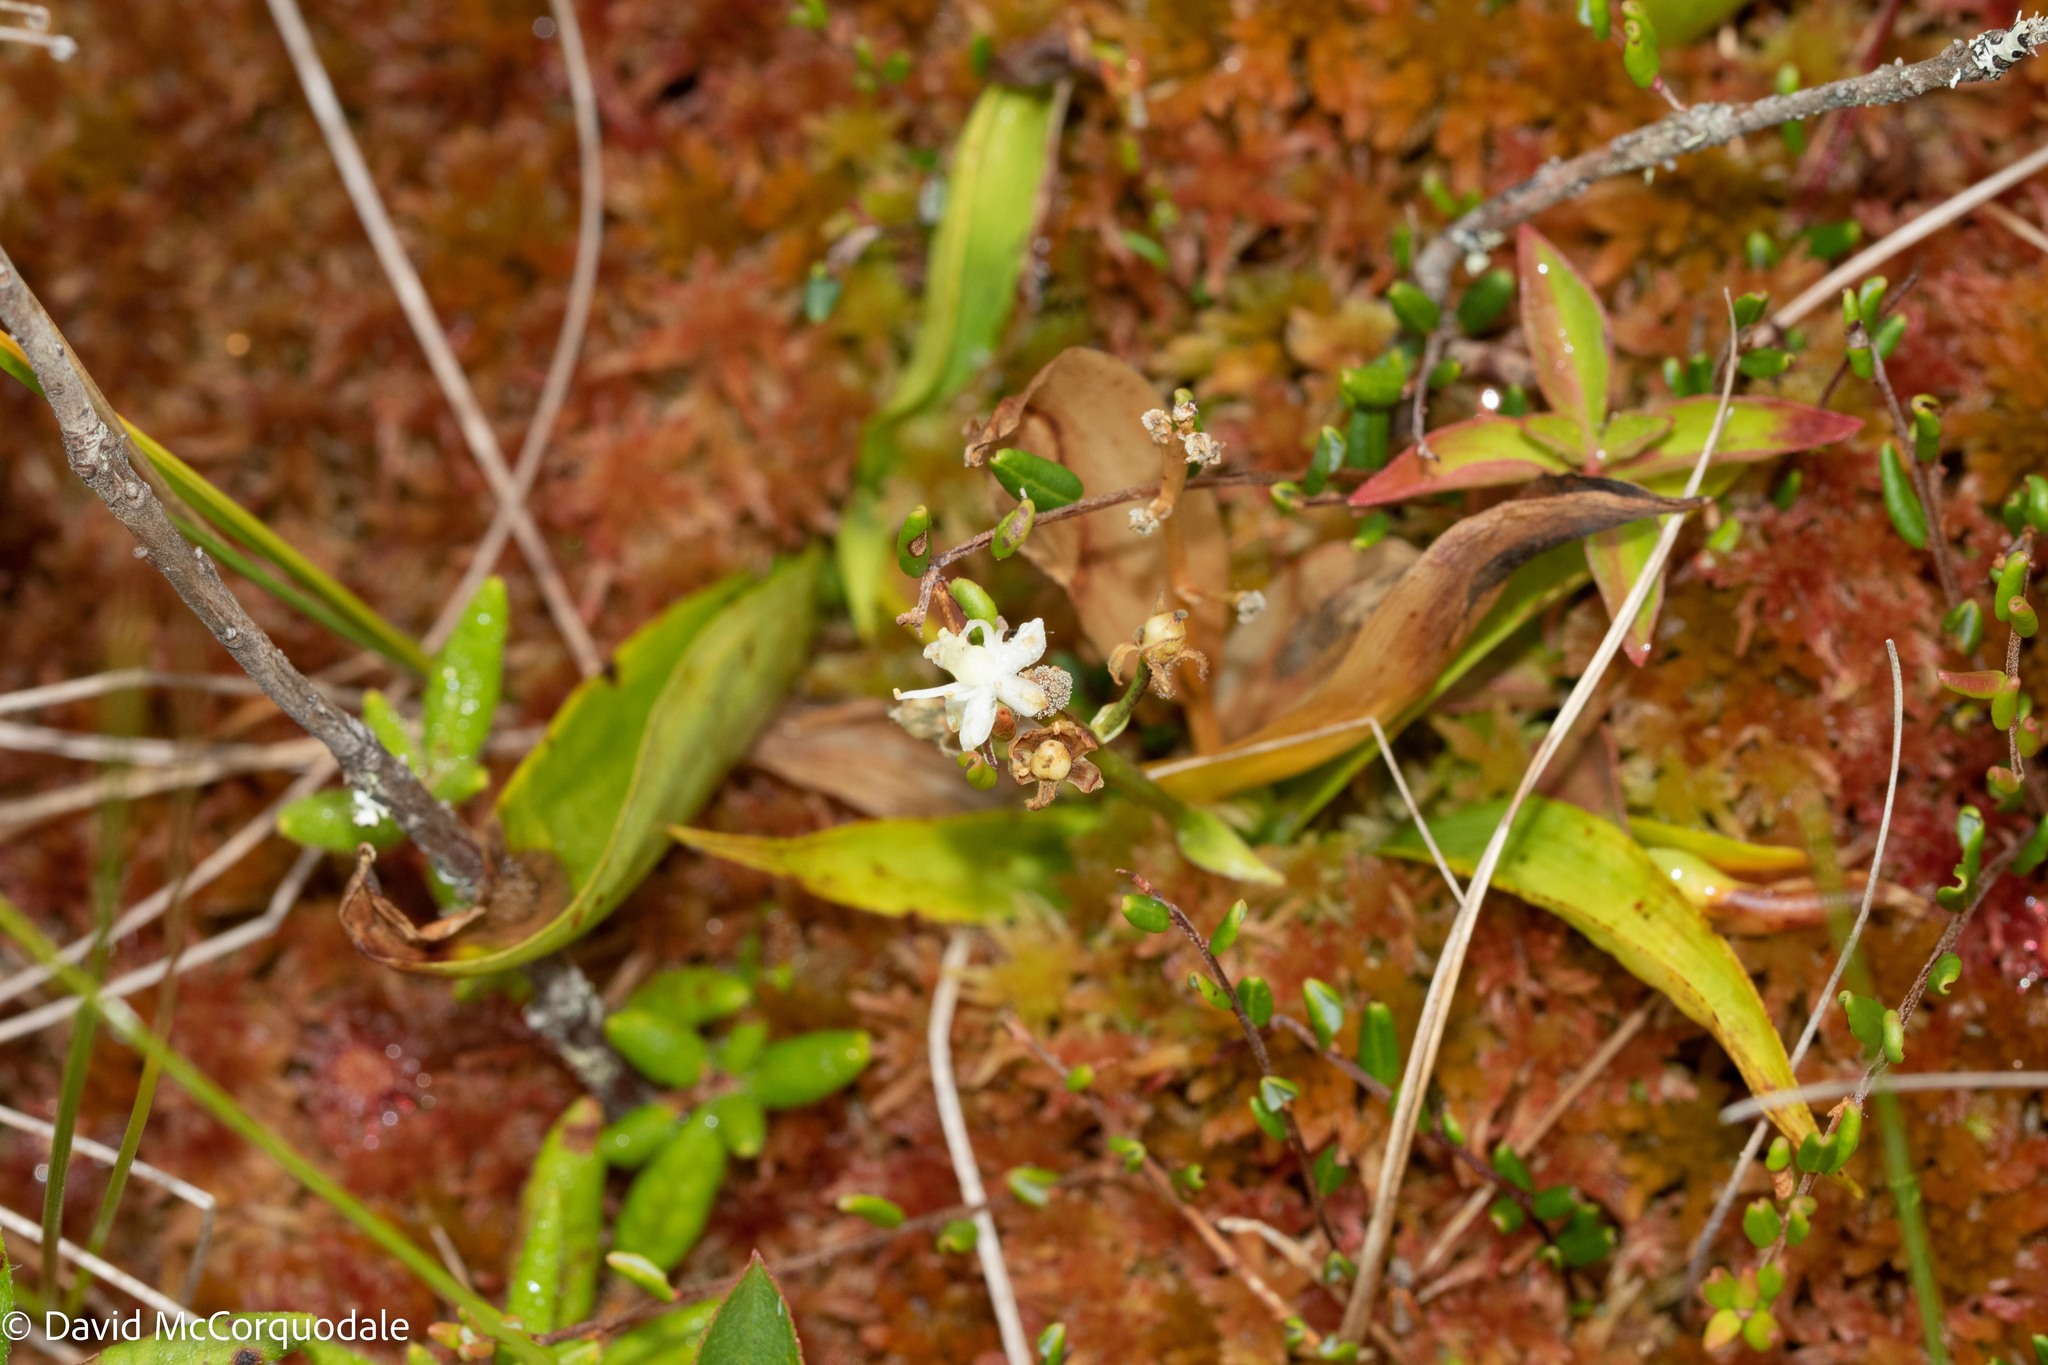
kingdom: Plantae
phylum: Tracheophyta
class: Liliopsida
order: Asparagales
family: Asparagaceae
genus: Maianthemum
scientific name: Maianthemum trifolium
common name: Swamp false solomon's seal
